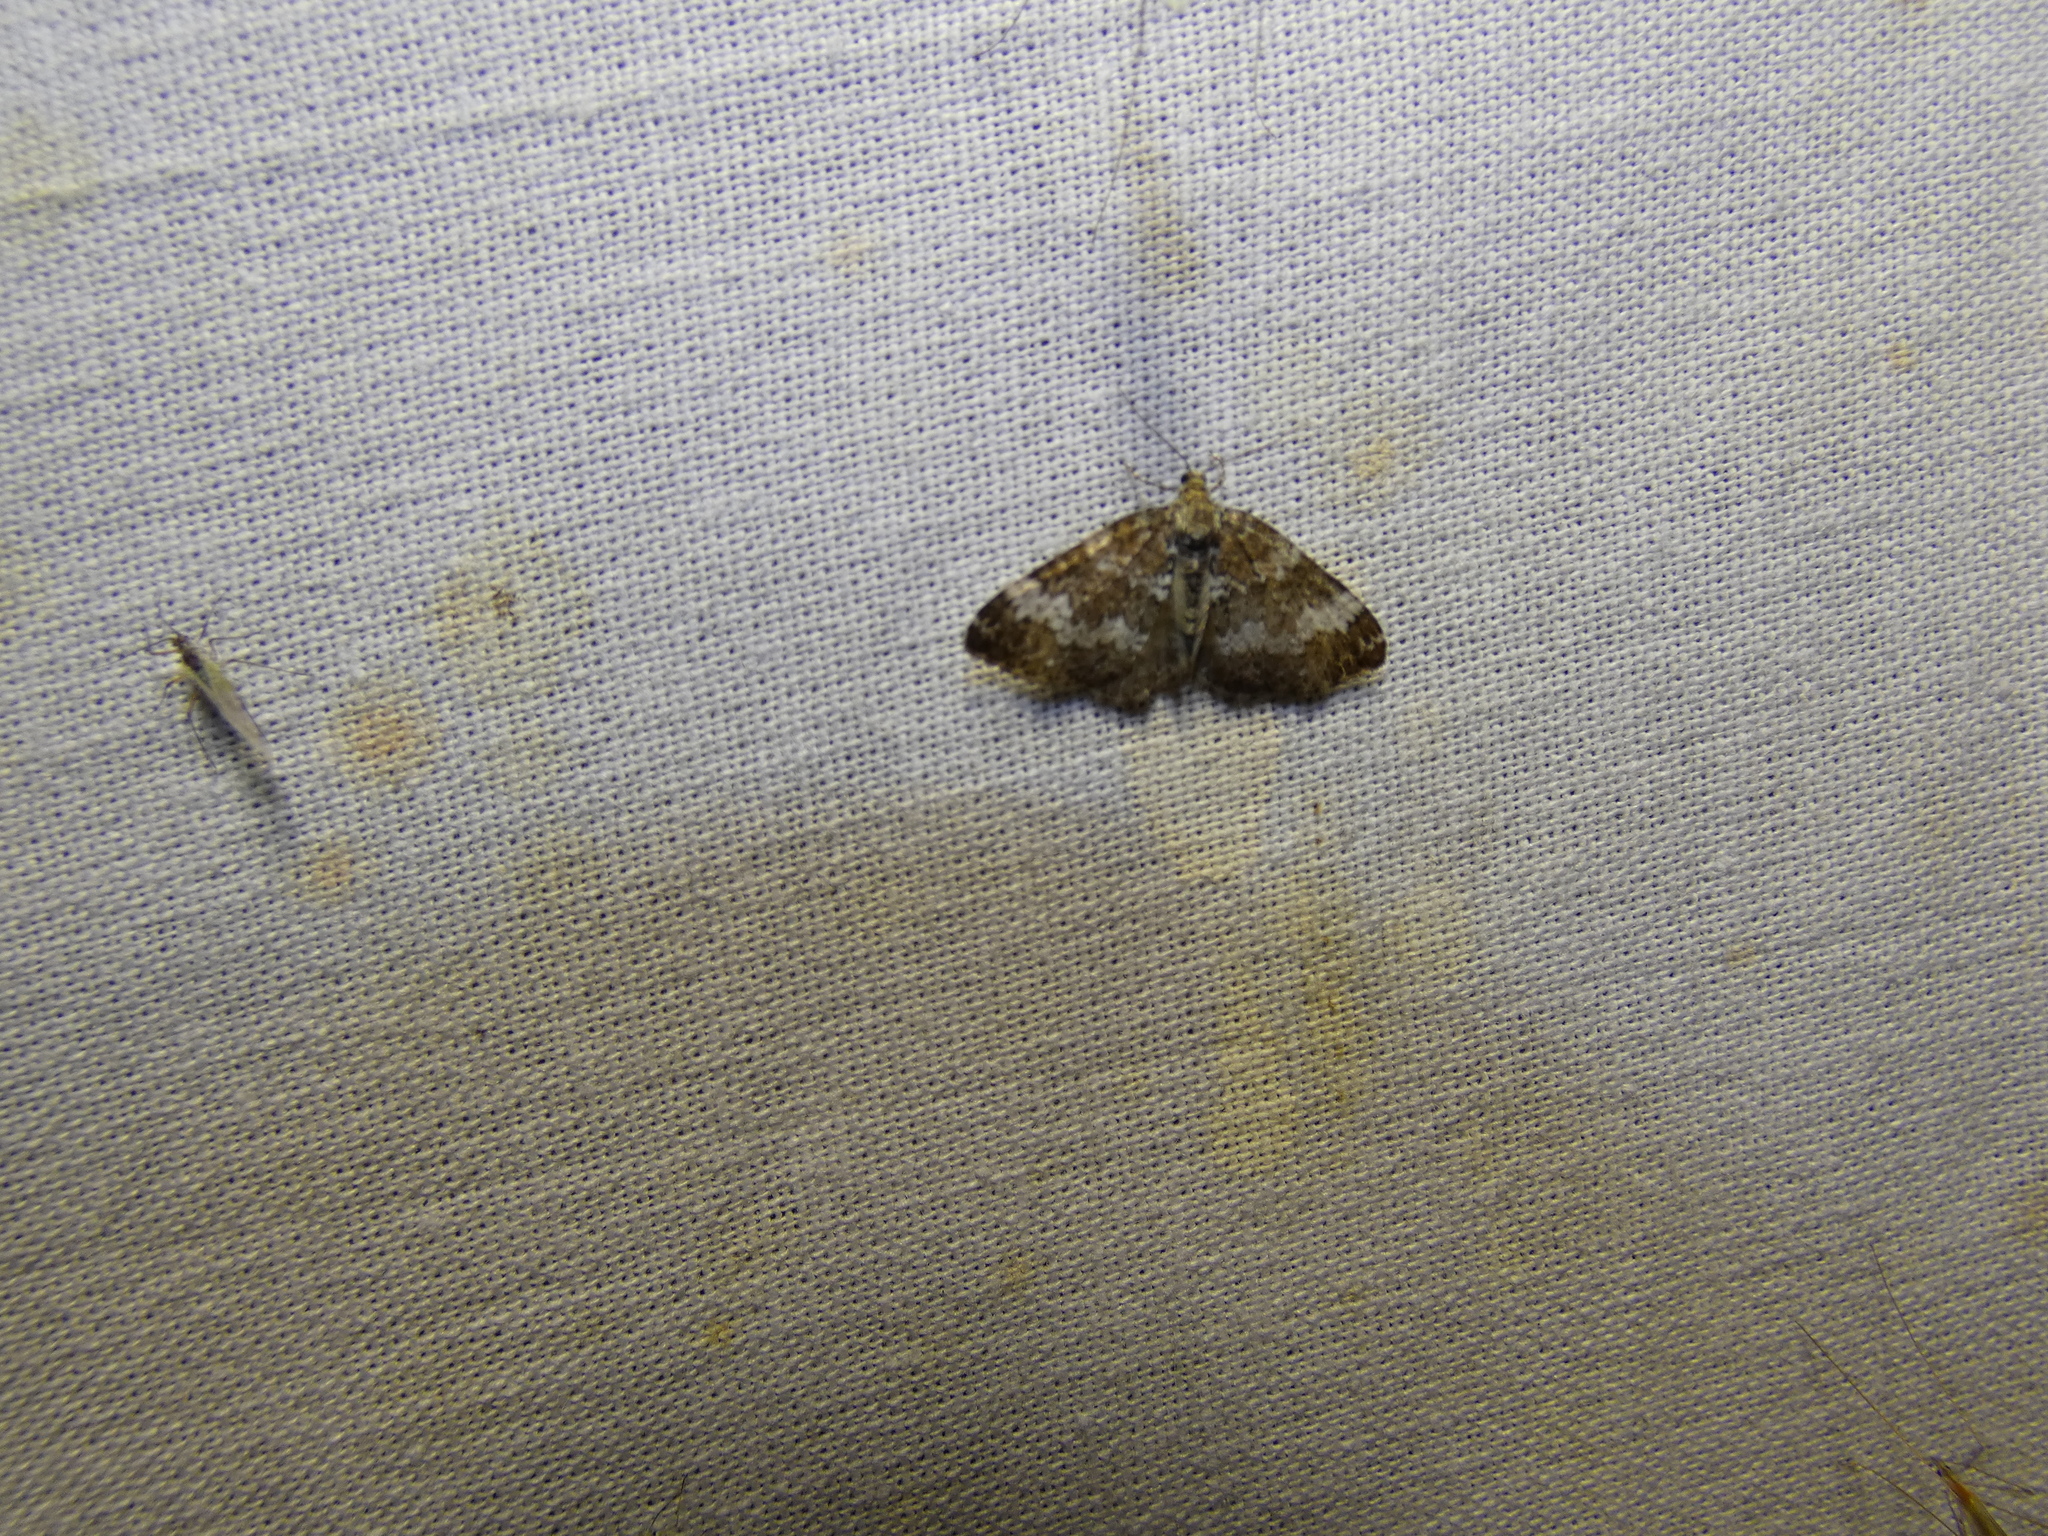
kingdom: Animalia
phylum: Arthropoda
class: Insecta
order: Lepidoptera
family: Geometridae
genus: Perizoma
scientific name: Perizoma alchemillata
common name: Small rivulet
